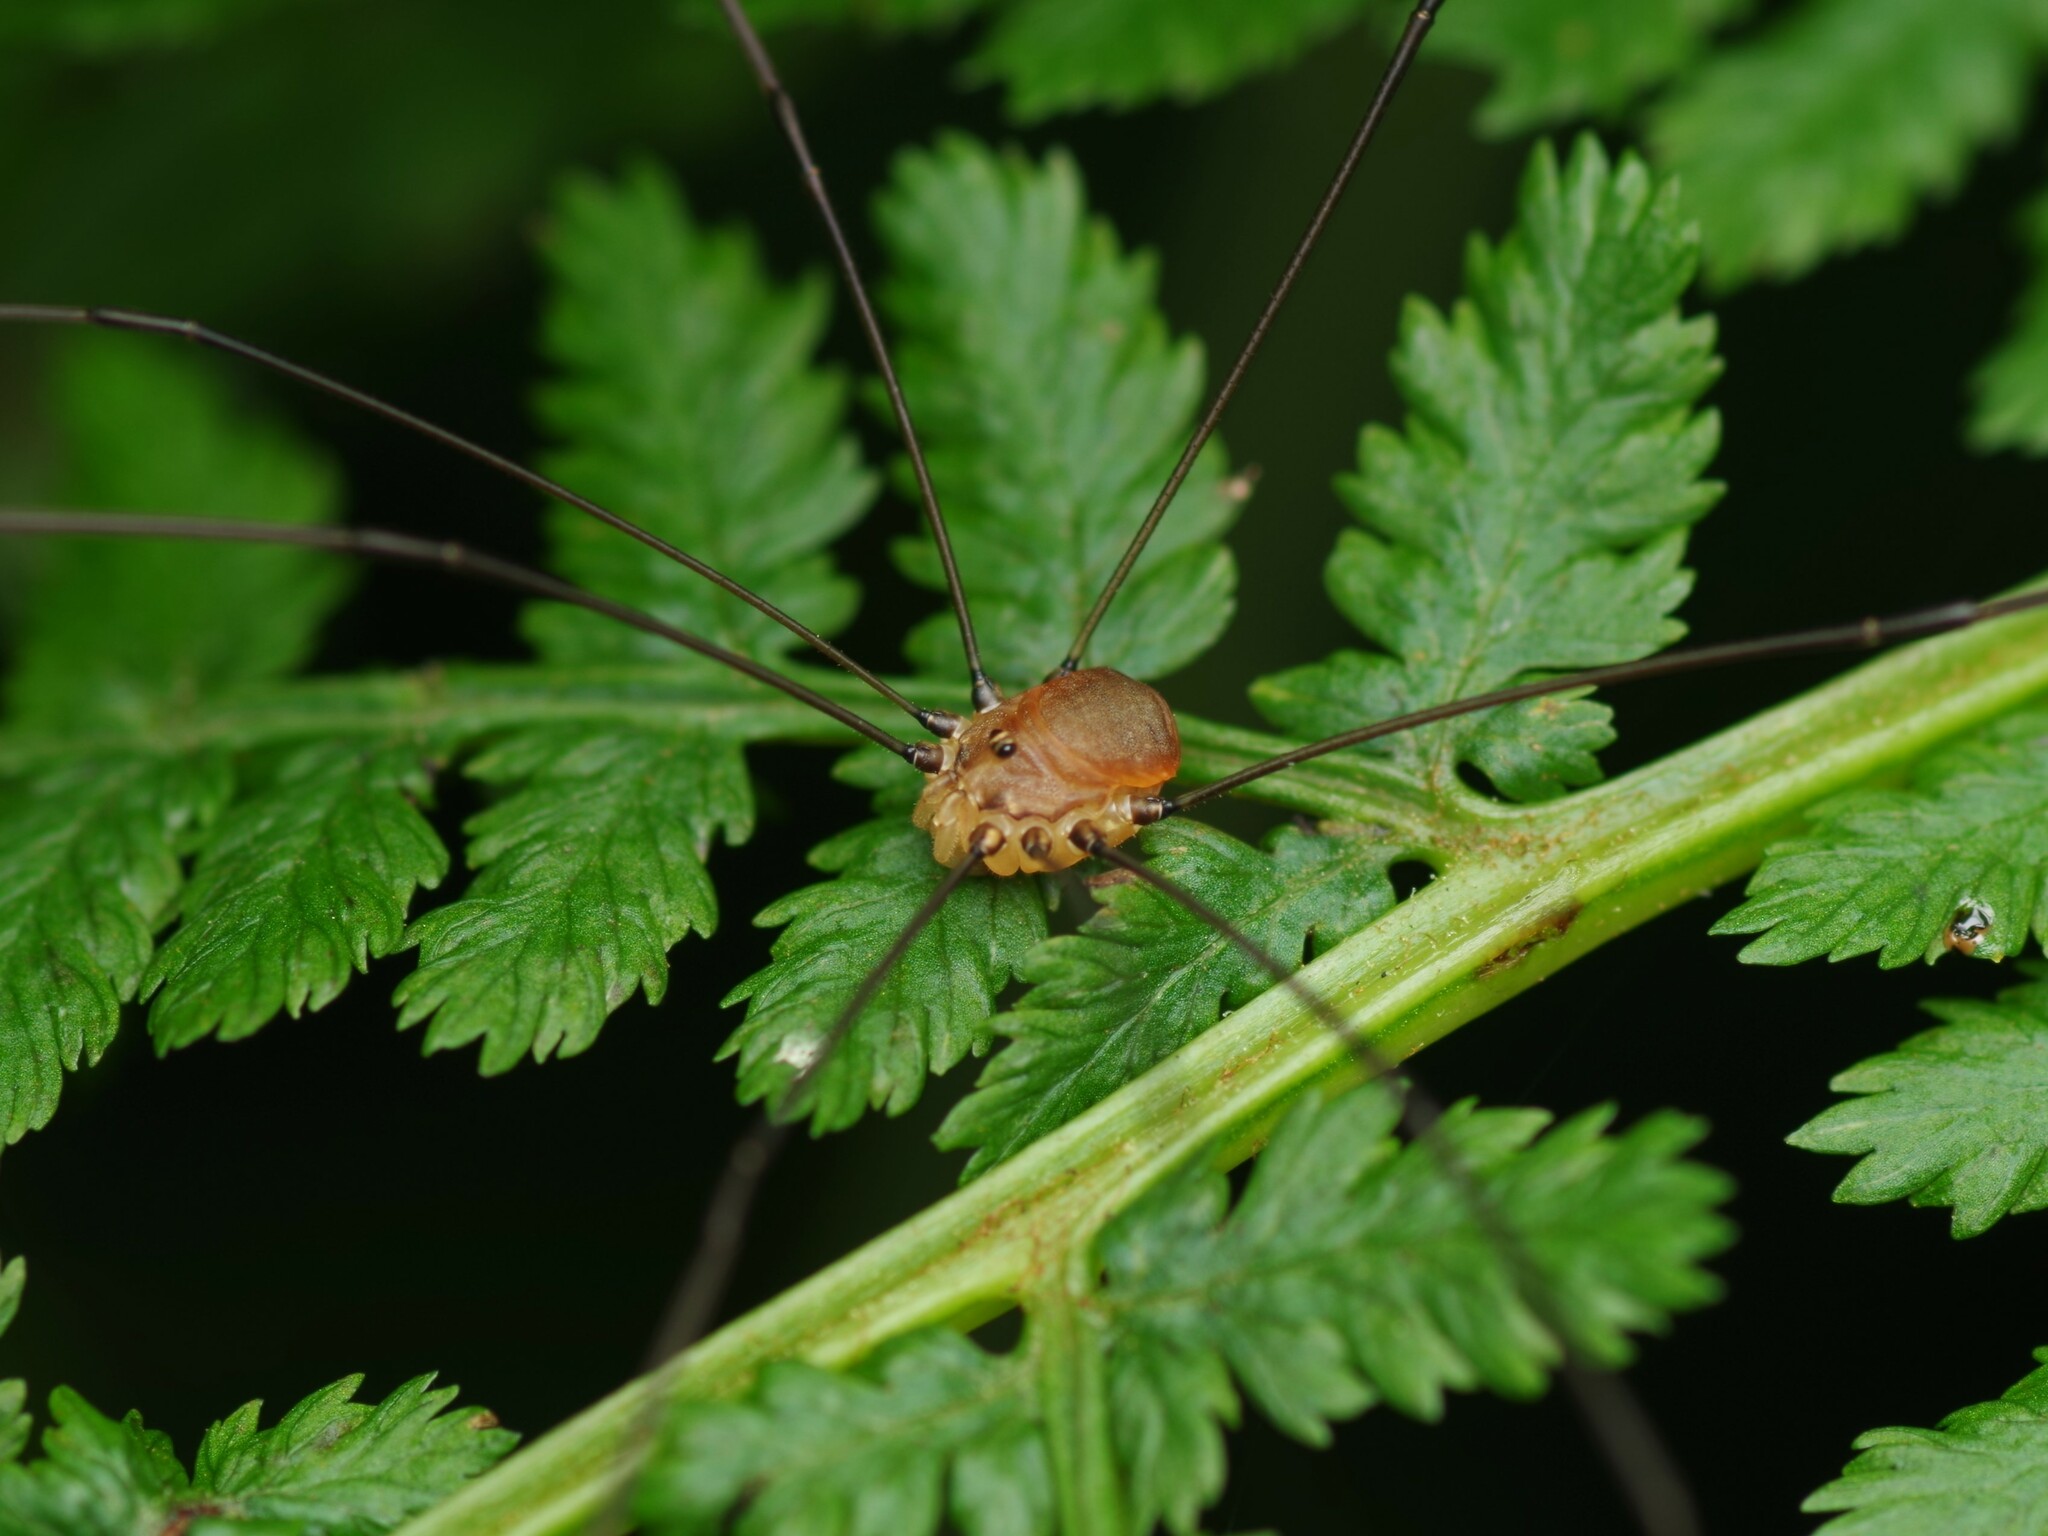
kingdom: Animalia
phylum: Arthropoda
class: Arachnida
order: Opiliones
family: Sclerosomatidae
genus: Leiobunum
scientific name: Leiobunum blackwalli
